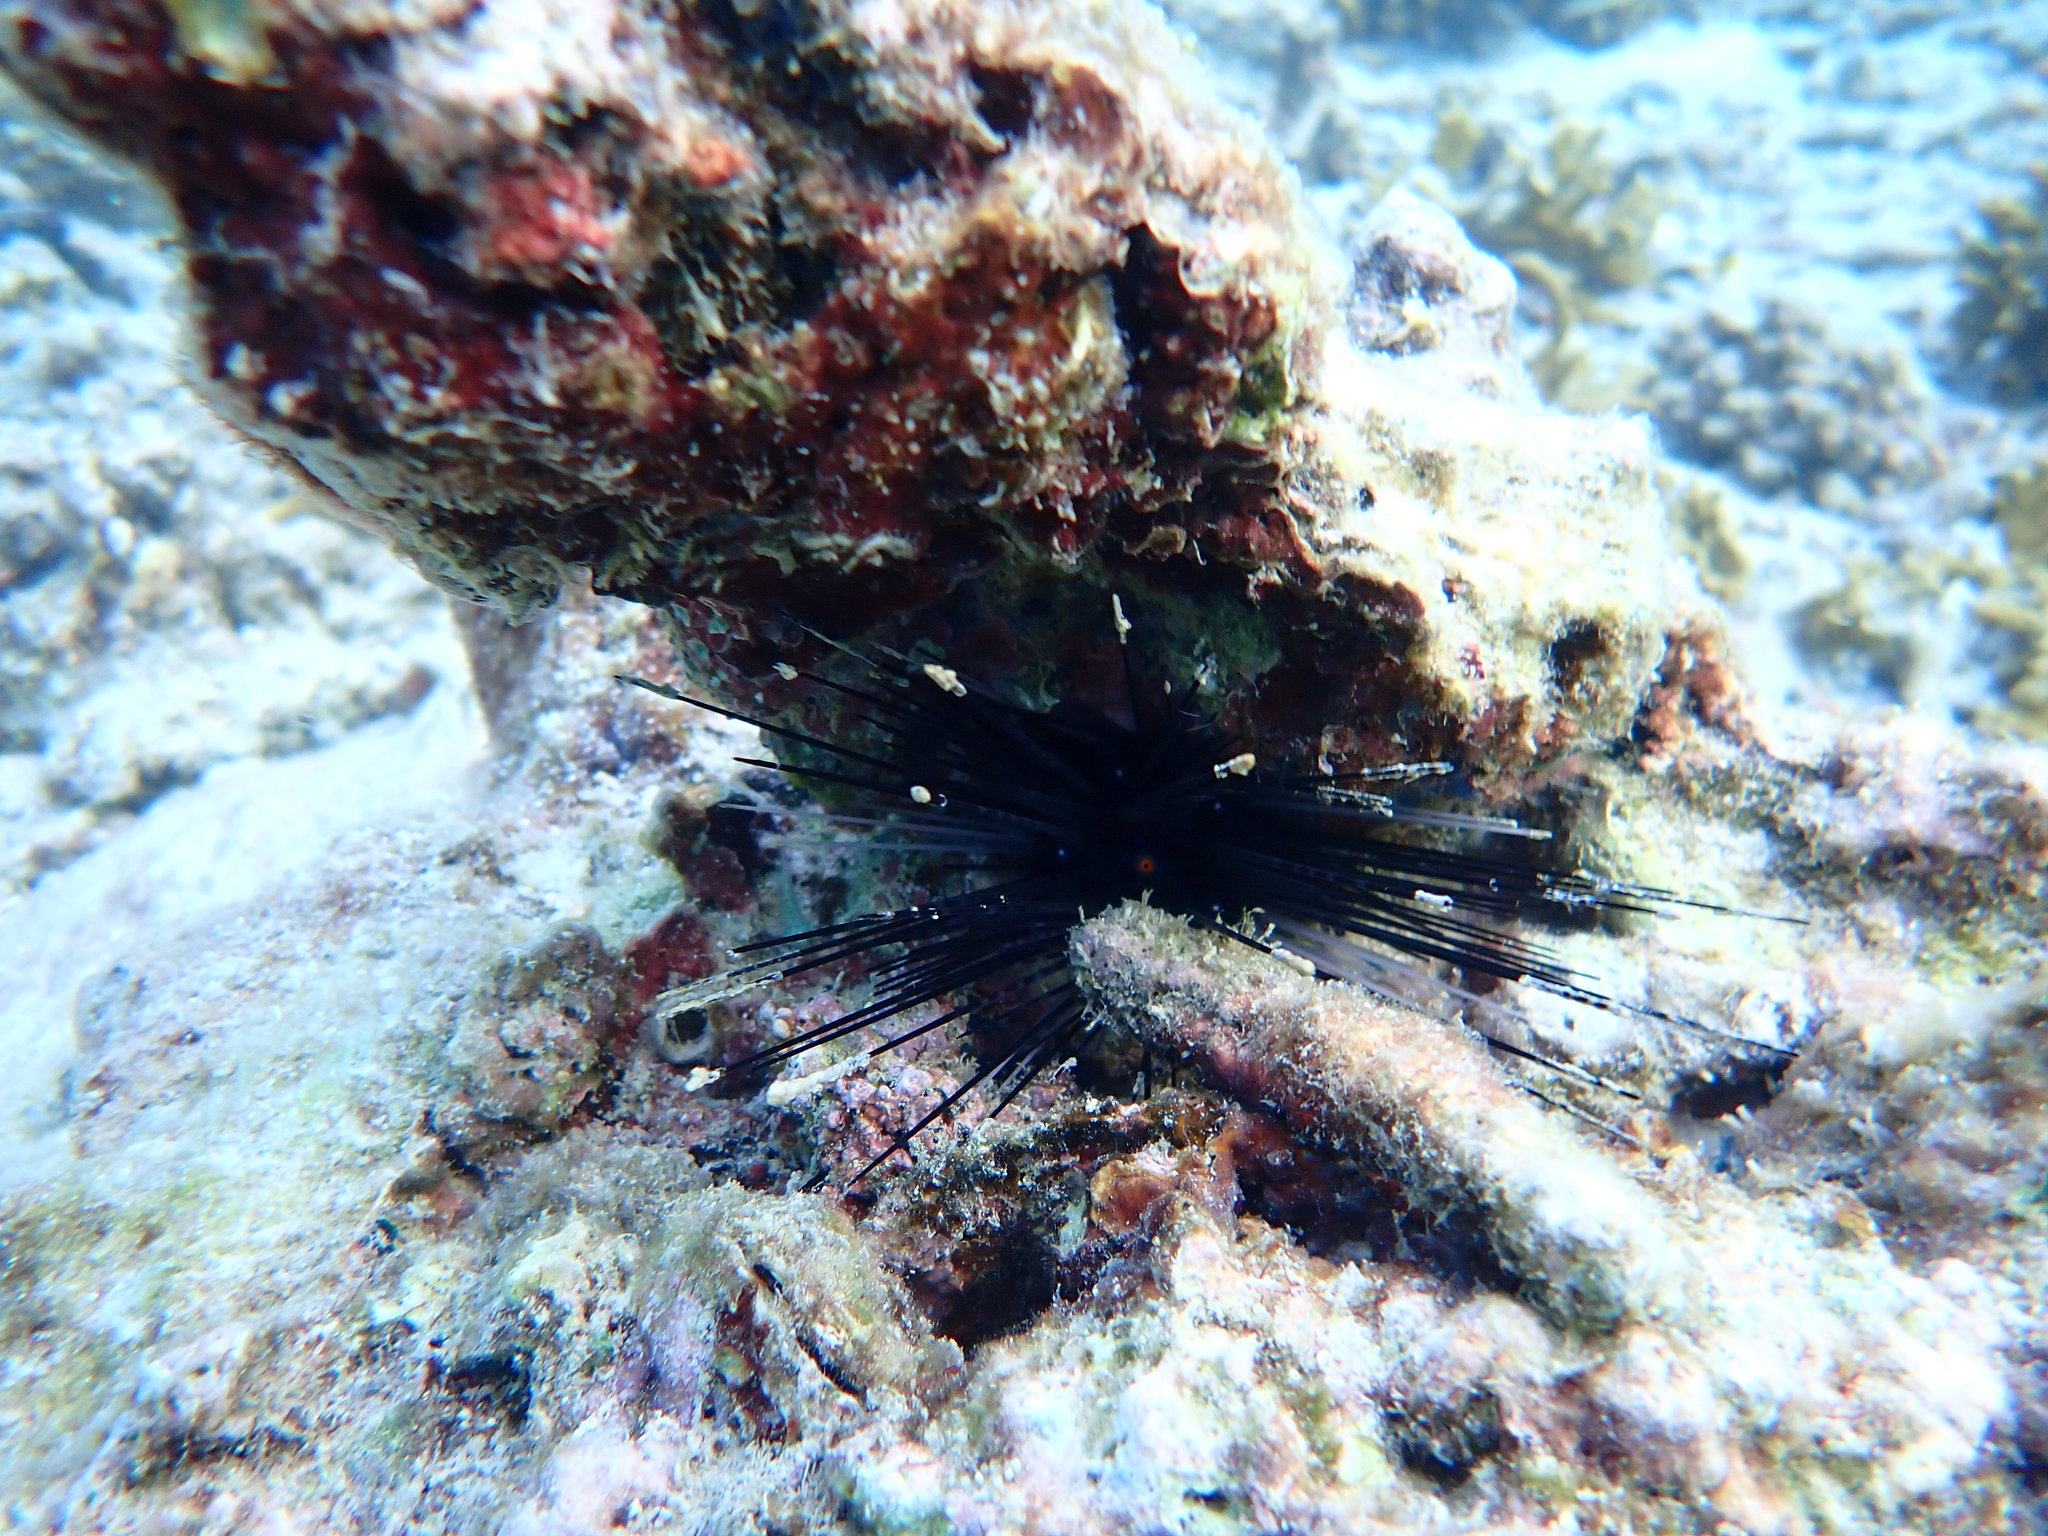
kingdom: Animalia
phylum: Echinodermata
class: Echinoidea
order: Diadematoida
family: Diadematidae
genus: Diadema
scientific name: Diadema setosum
